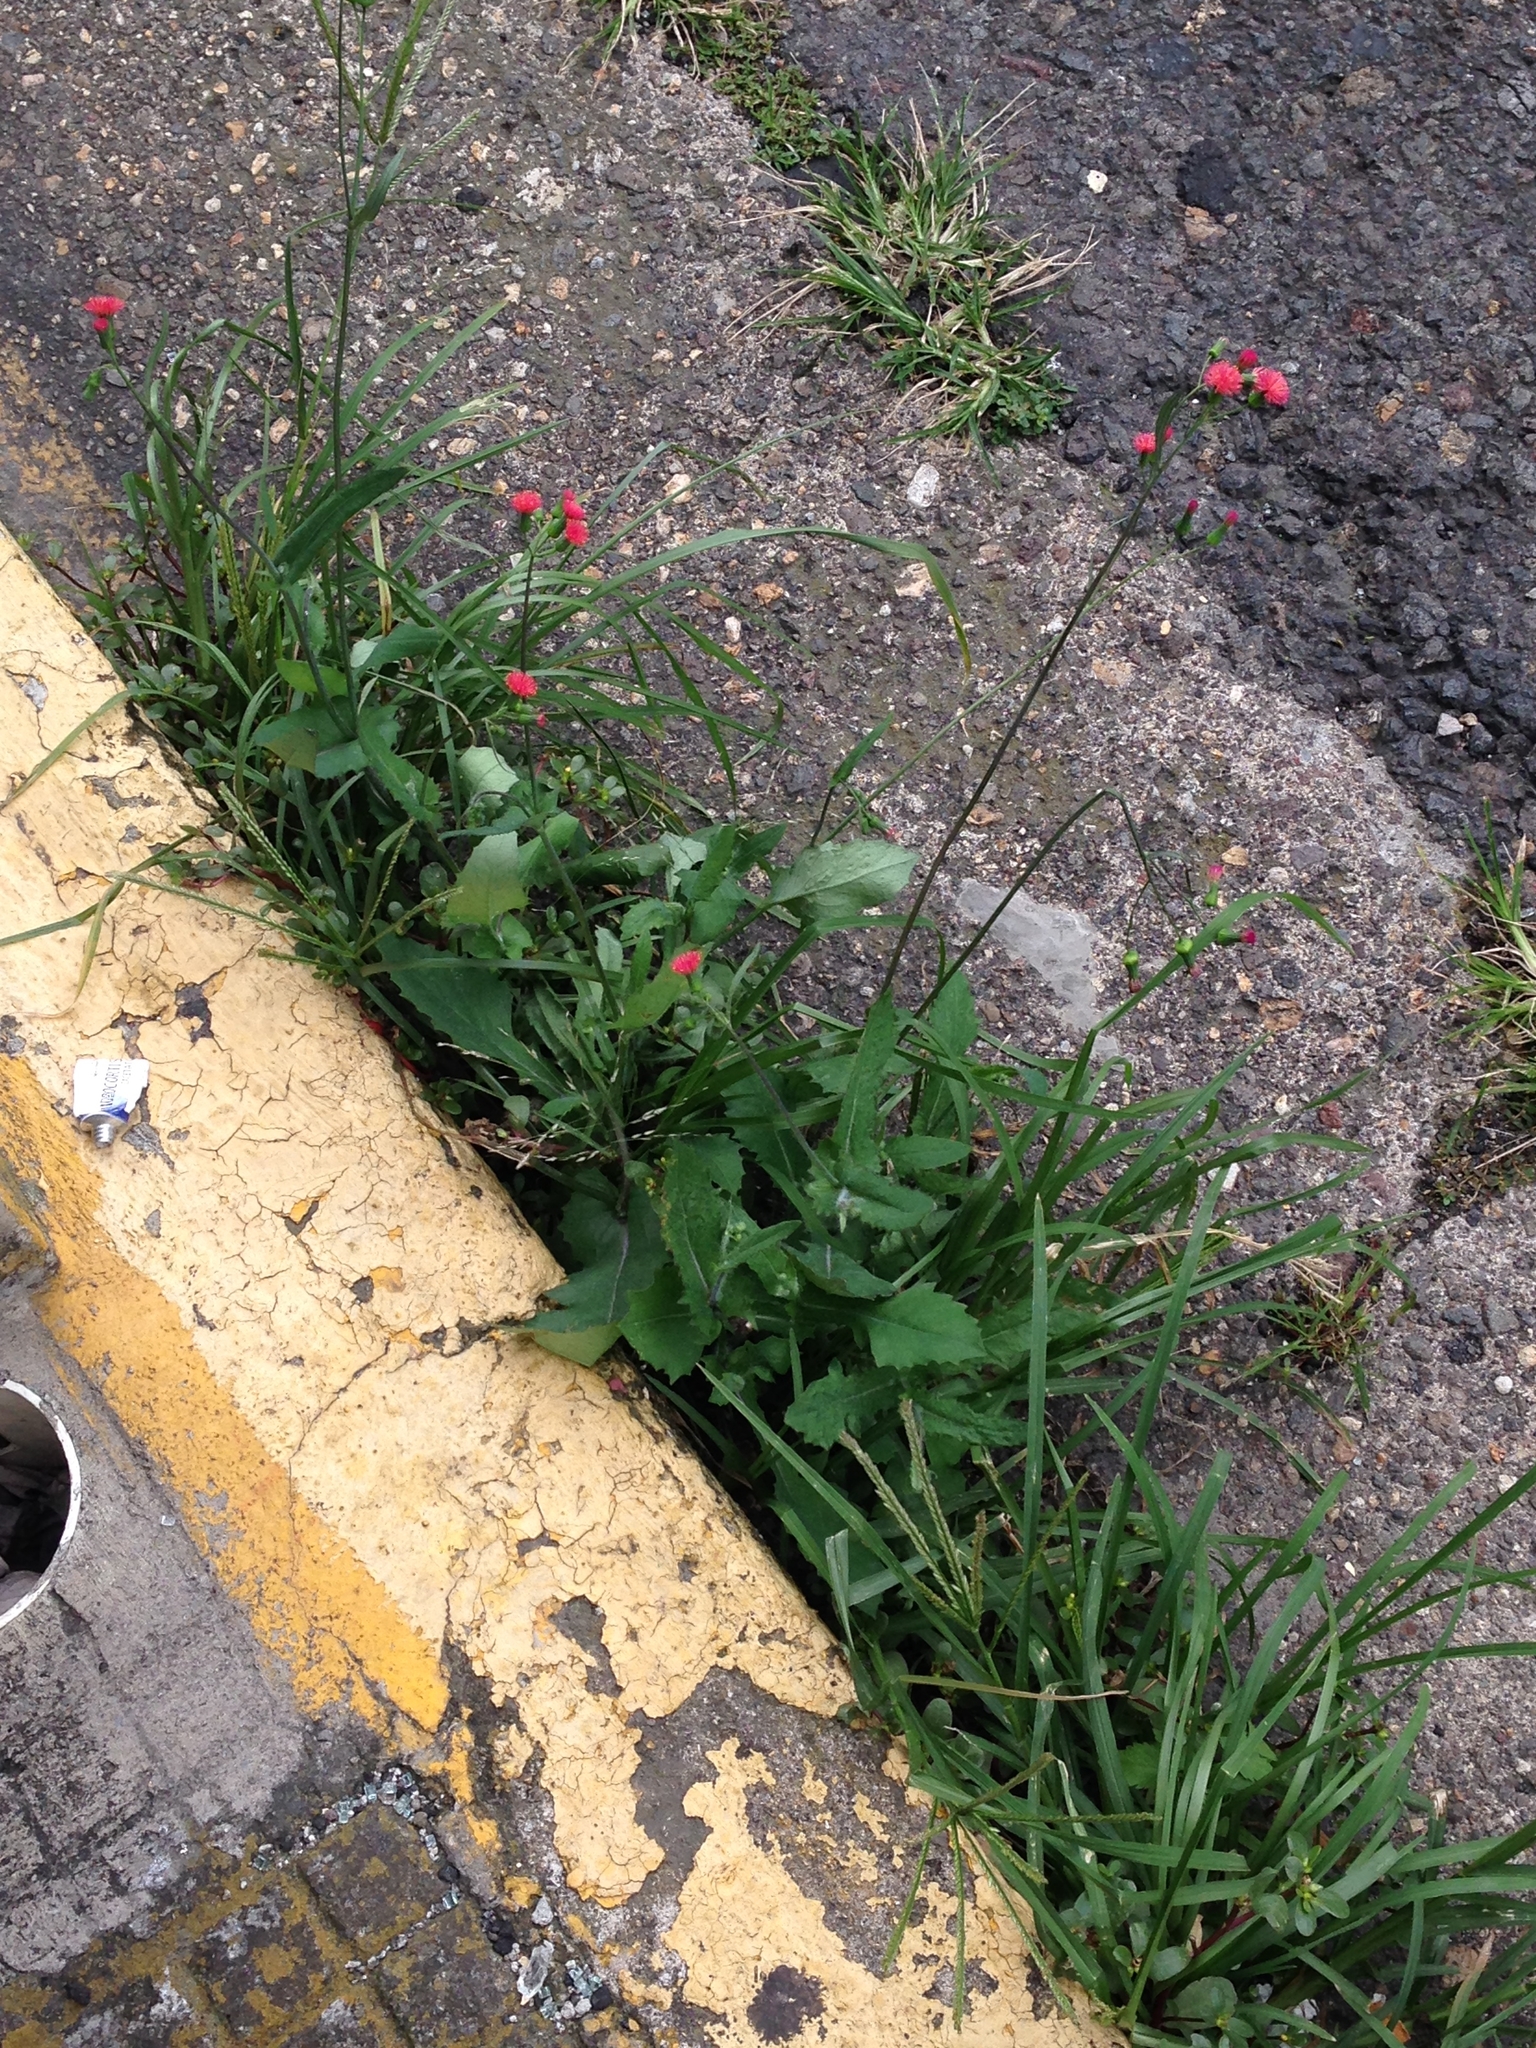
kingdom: Plantae
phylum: Tracheophyta
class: Magnoliopsida
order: Asterales
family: Asteraceae
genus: Emilia
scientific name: Emilia fosbergii
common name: Florida tasselflower
